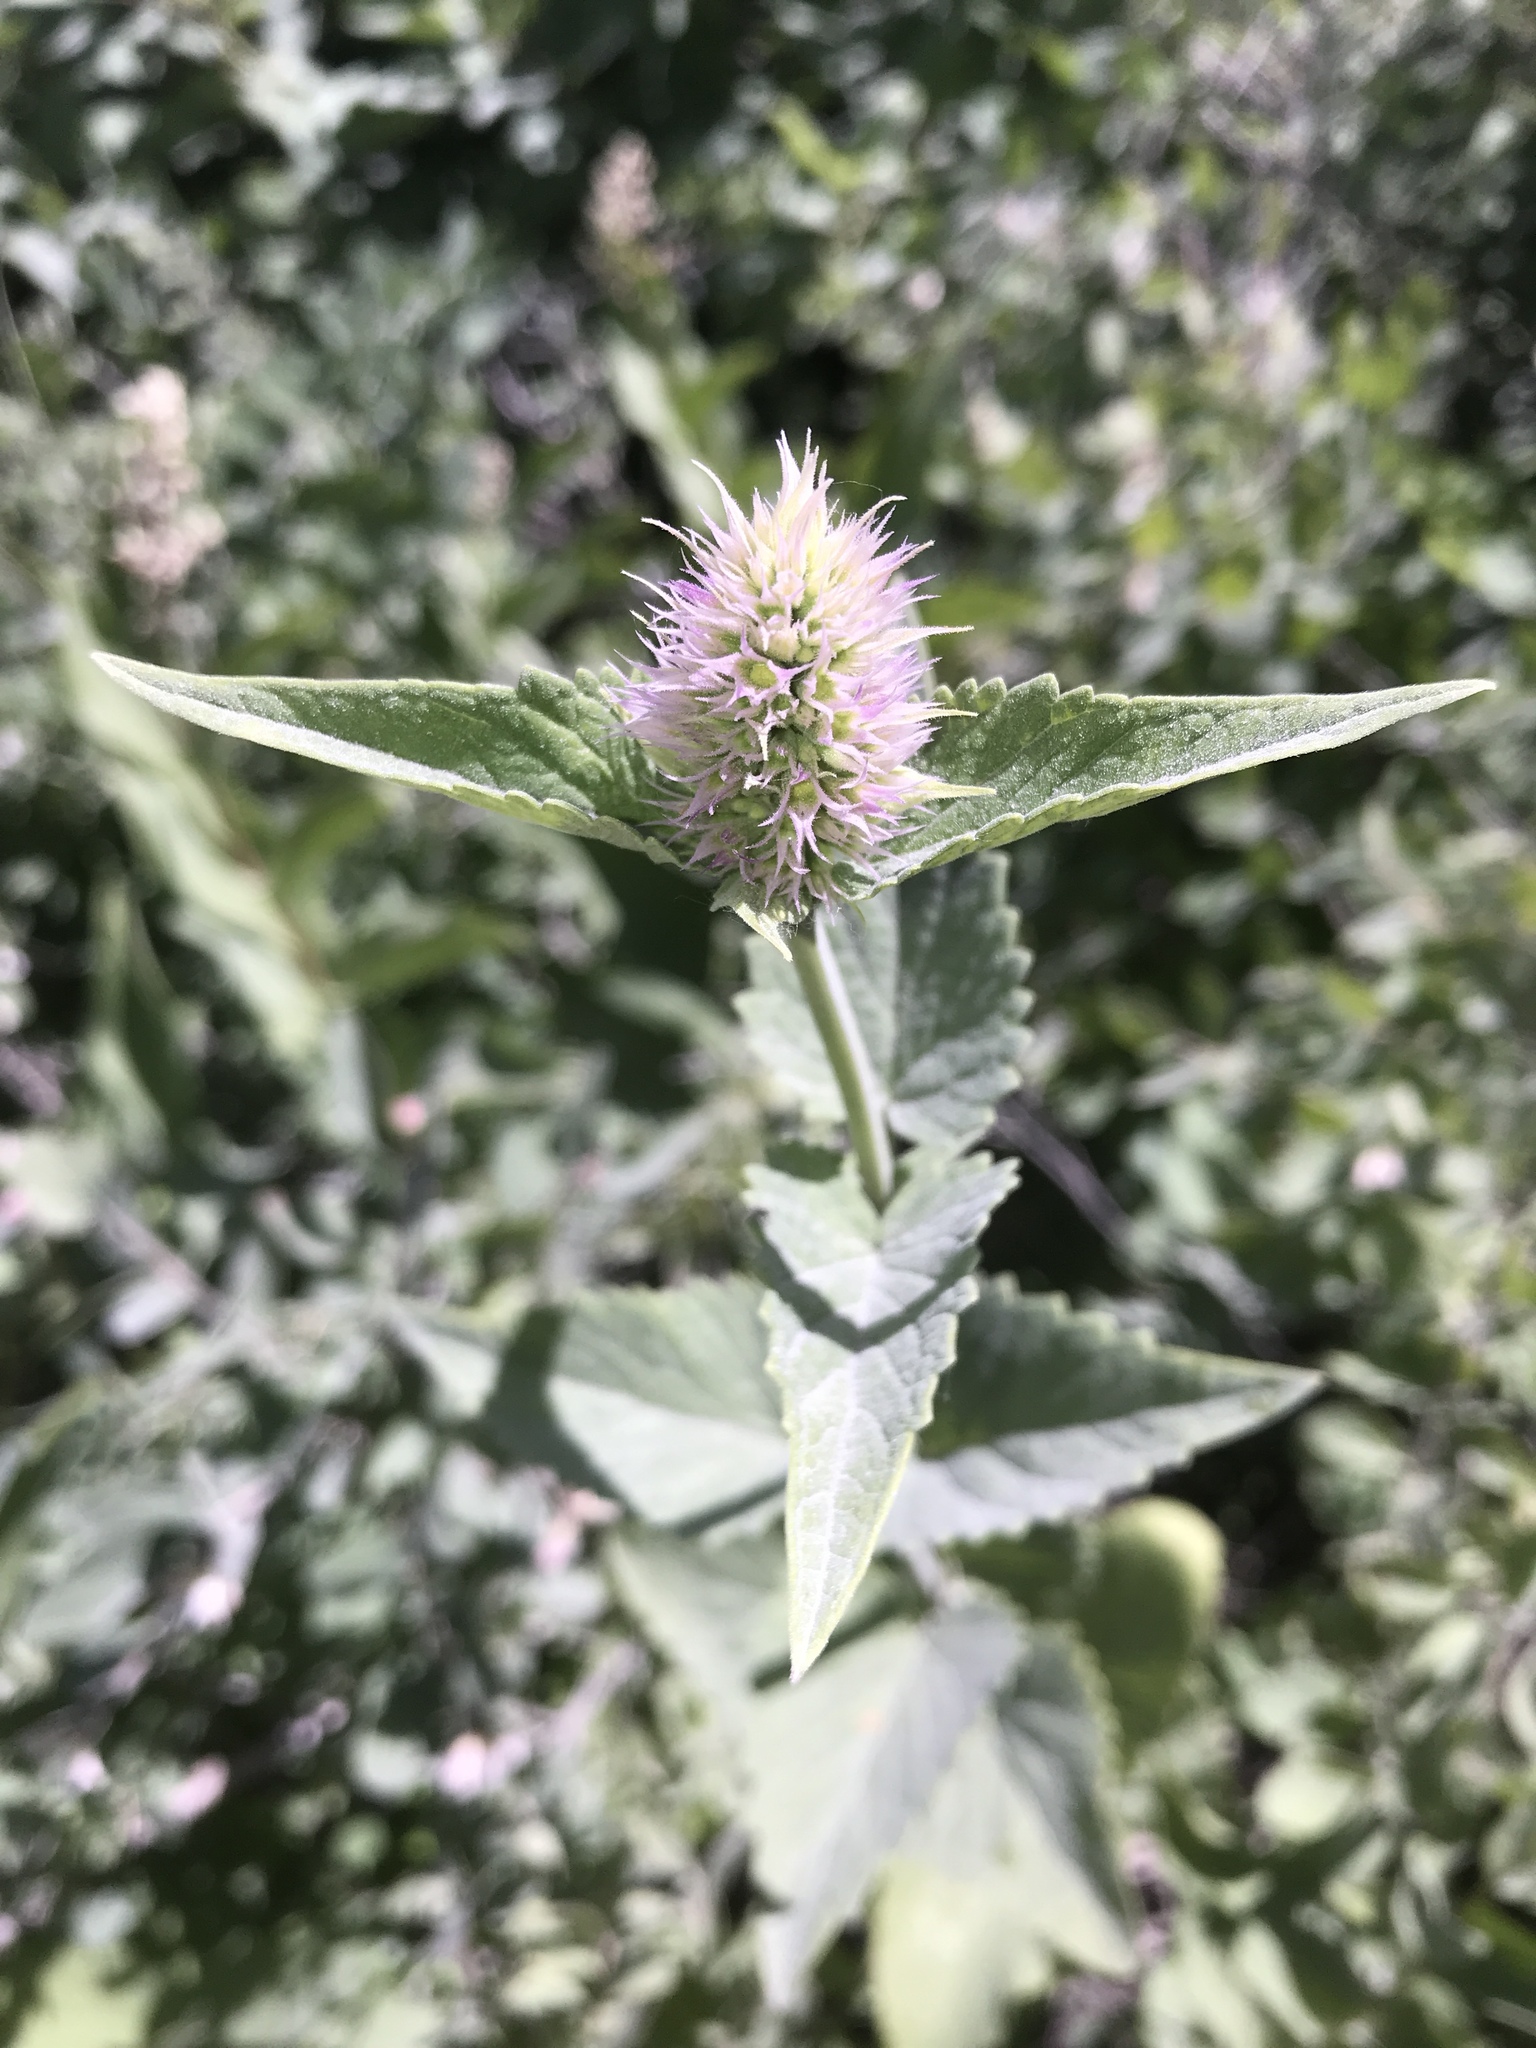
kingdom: Plantae
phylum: Tracheophyta
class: Magnoliopsida
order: Lamiales
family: Lamiaceae
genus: Agastache
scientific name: Agastache urticifolia
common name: Horsemint giant hyssop
